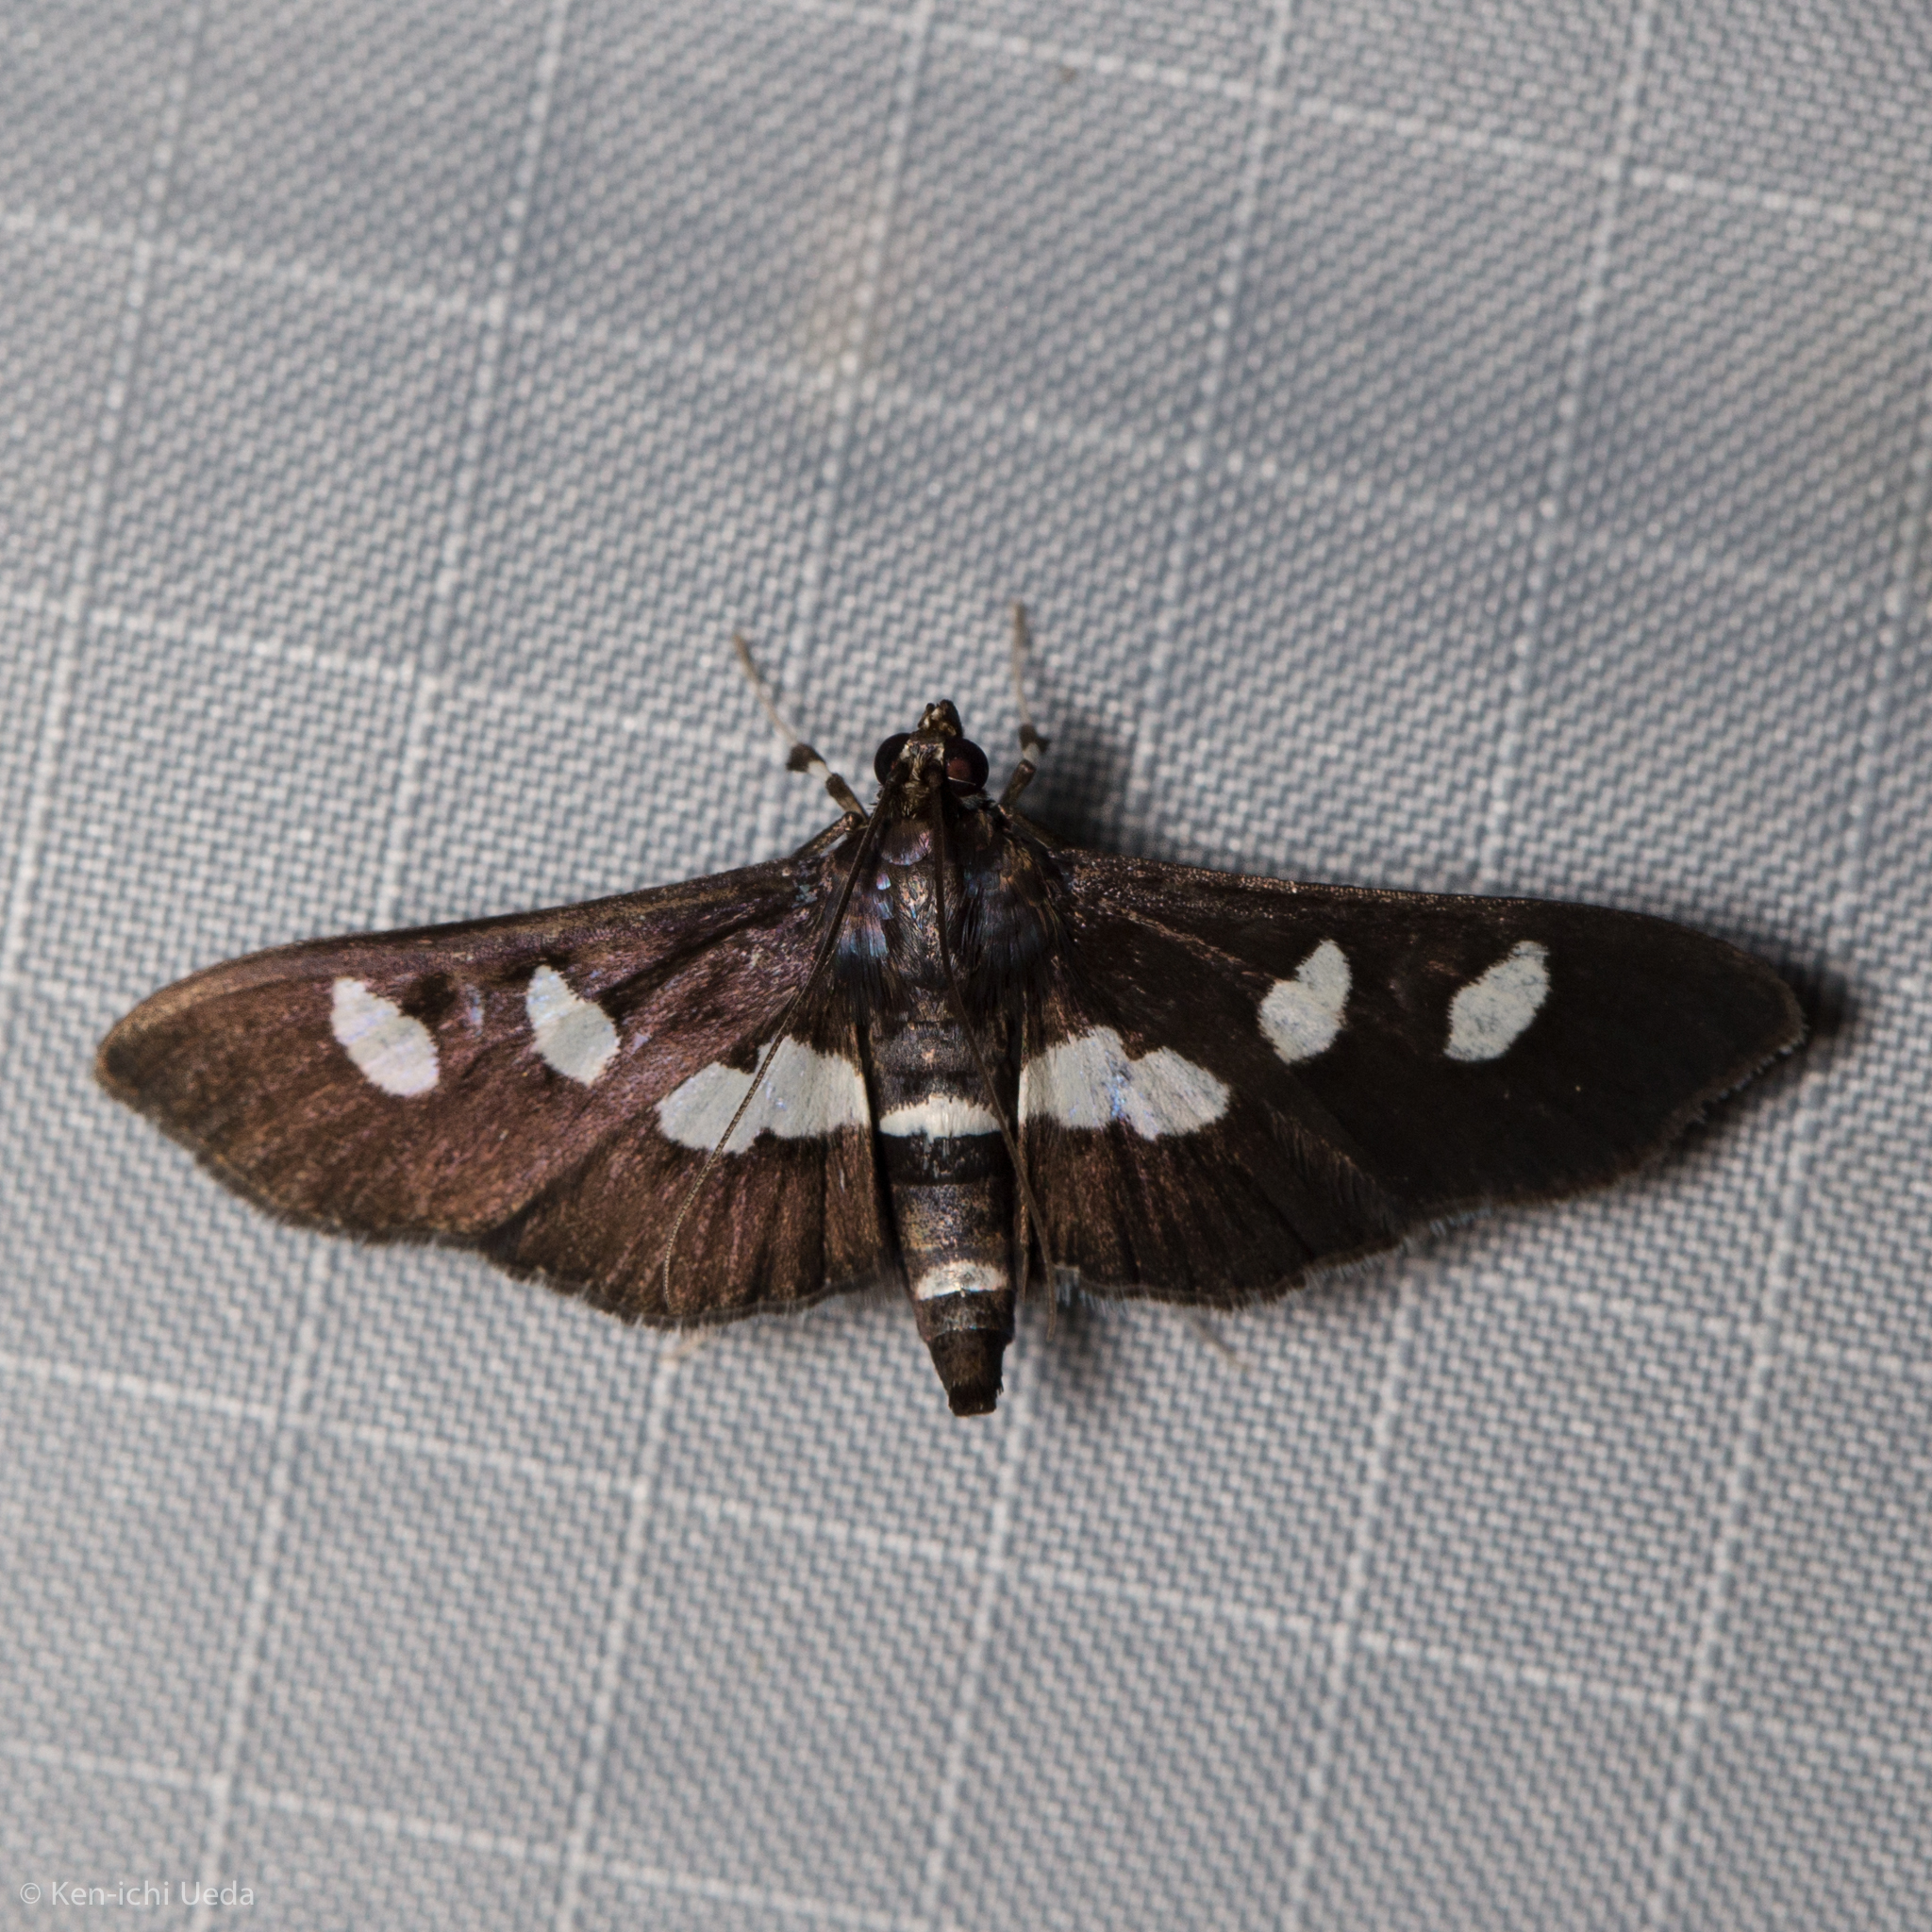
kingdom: Animalia
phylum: Arthropoda
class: Insecta
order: Lepidoptera
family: Crambidae
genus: Desmia
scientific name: Desmia
